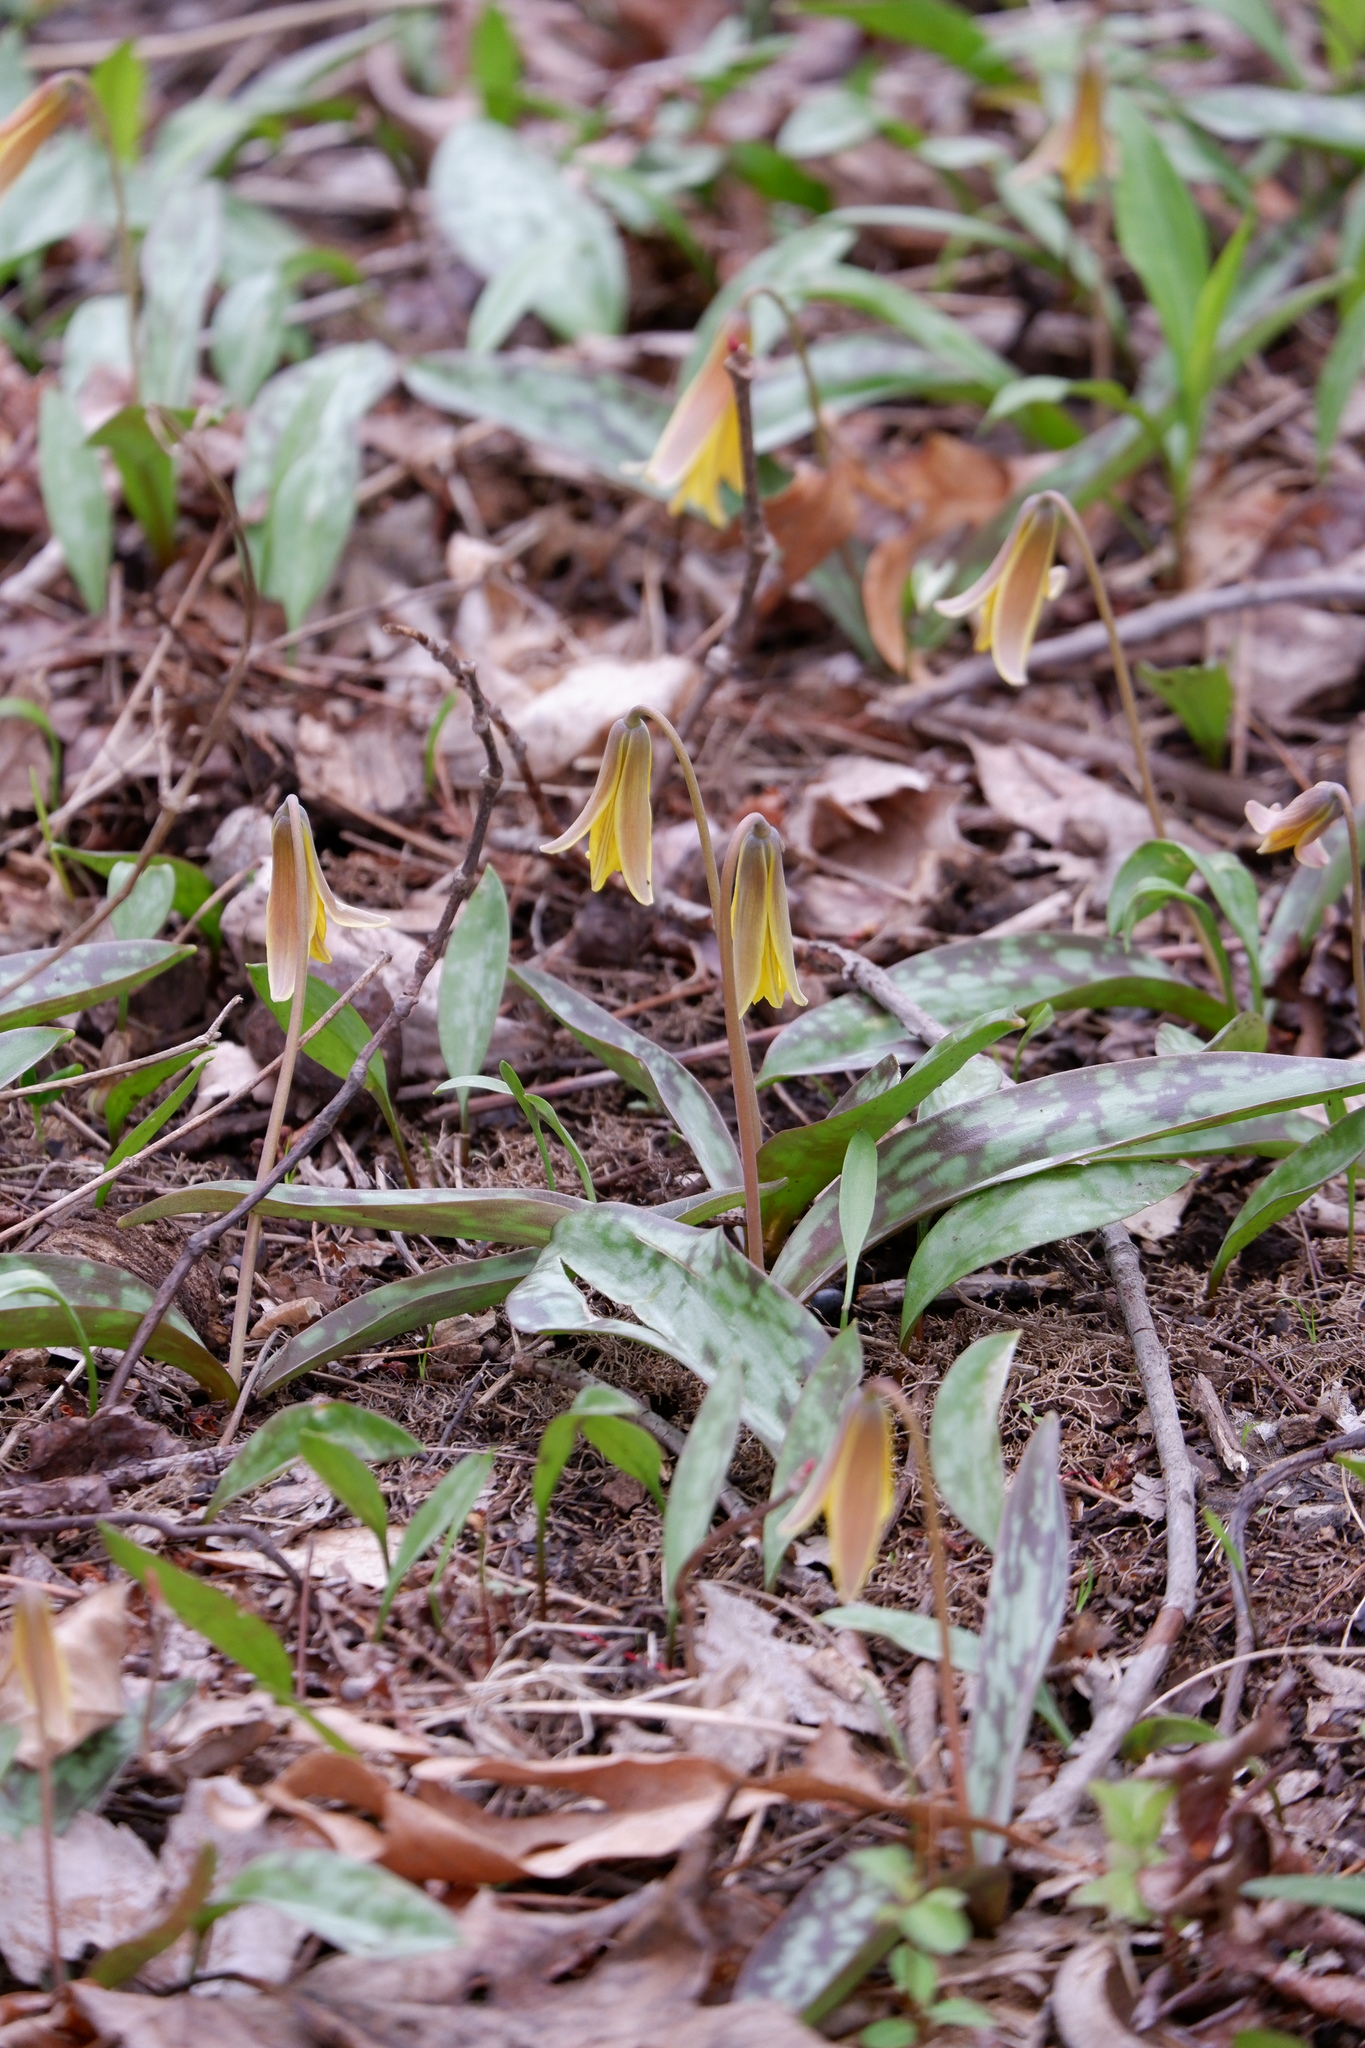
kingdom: Plantae
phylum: Tracheophyta
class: Liliopsida
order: Liliales
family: Liliaceae
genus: Erythronium
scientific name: Erythronium americanum
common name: Yellow adder's-tongue
